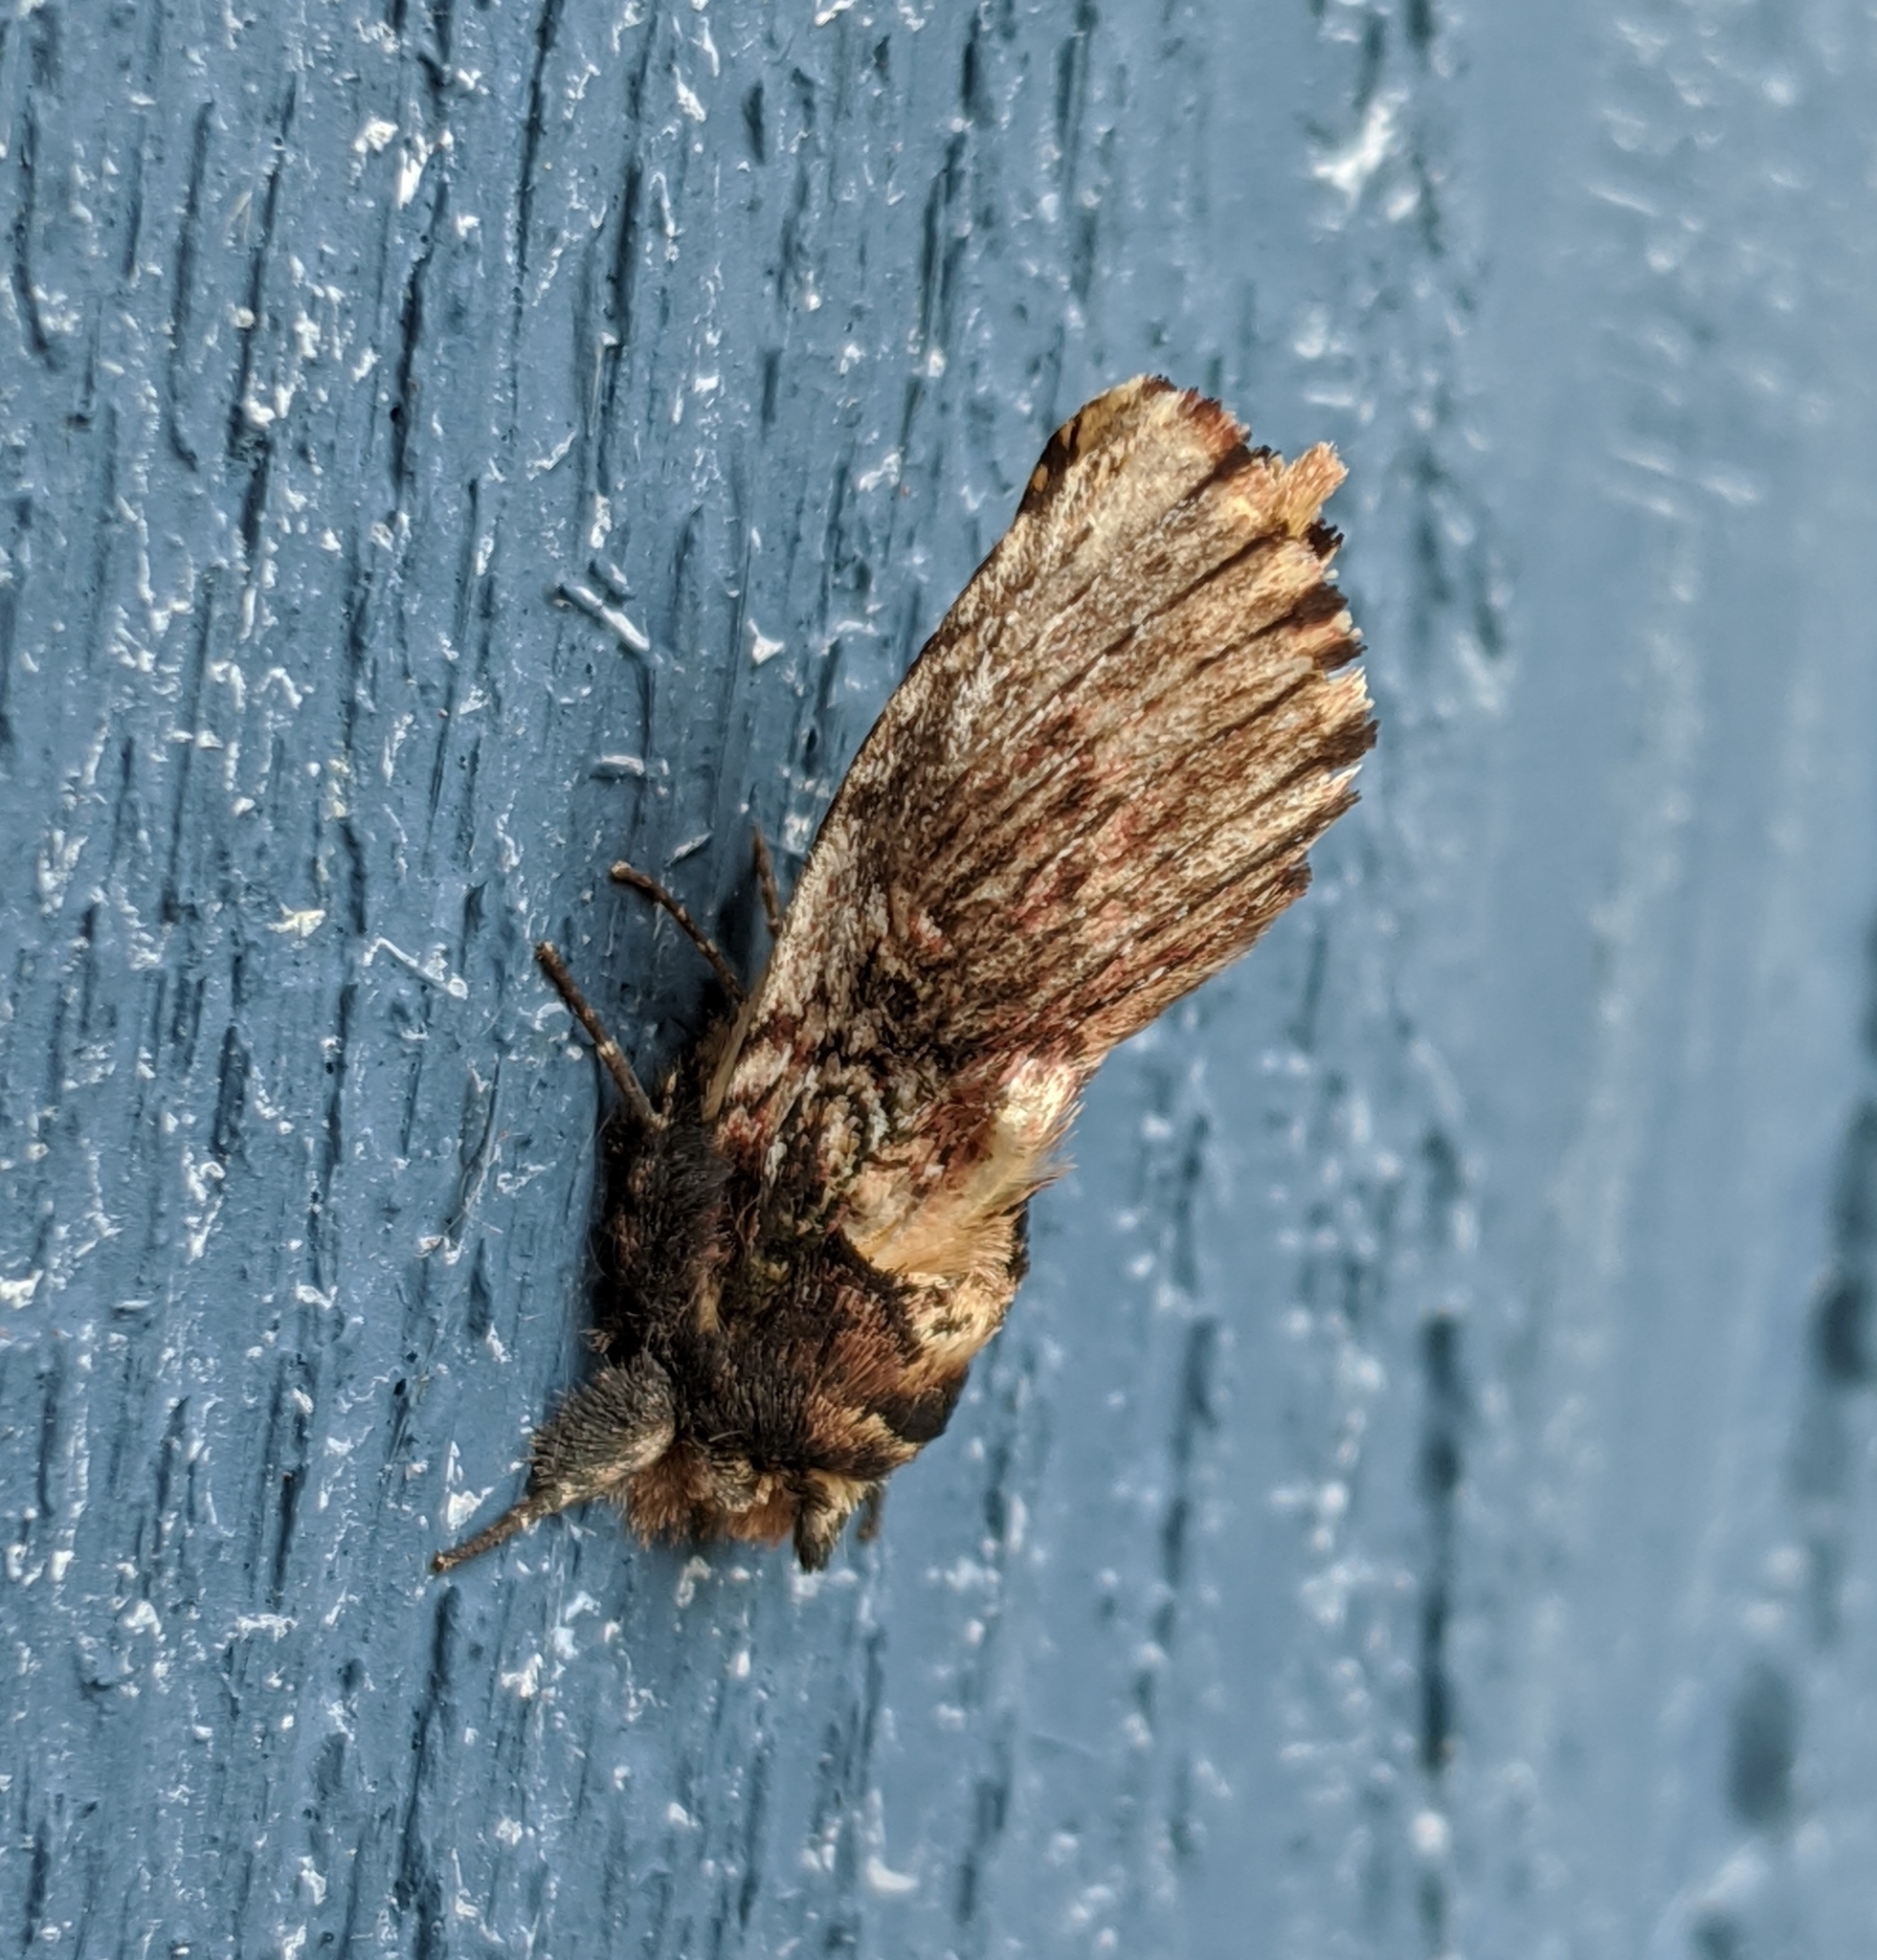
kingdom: Animalia
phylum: Arthropoda
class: Insecta
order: Lepidoptera
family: Notodontidae
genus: Schizura
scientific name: Schizura ipomaeae
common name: Morning-glory prominent
